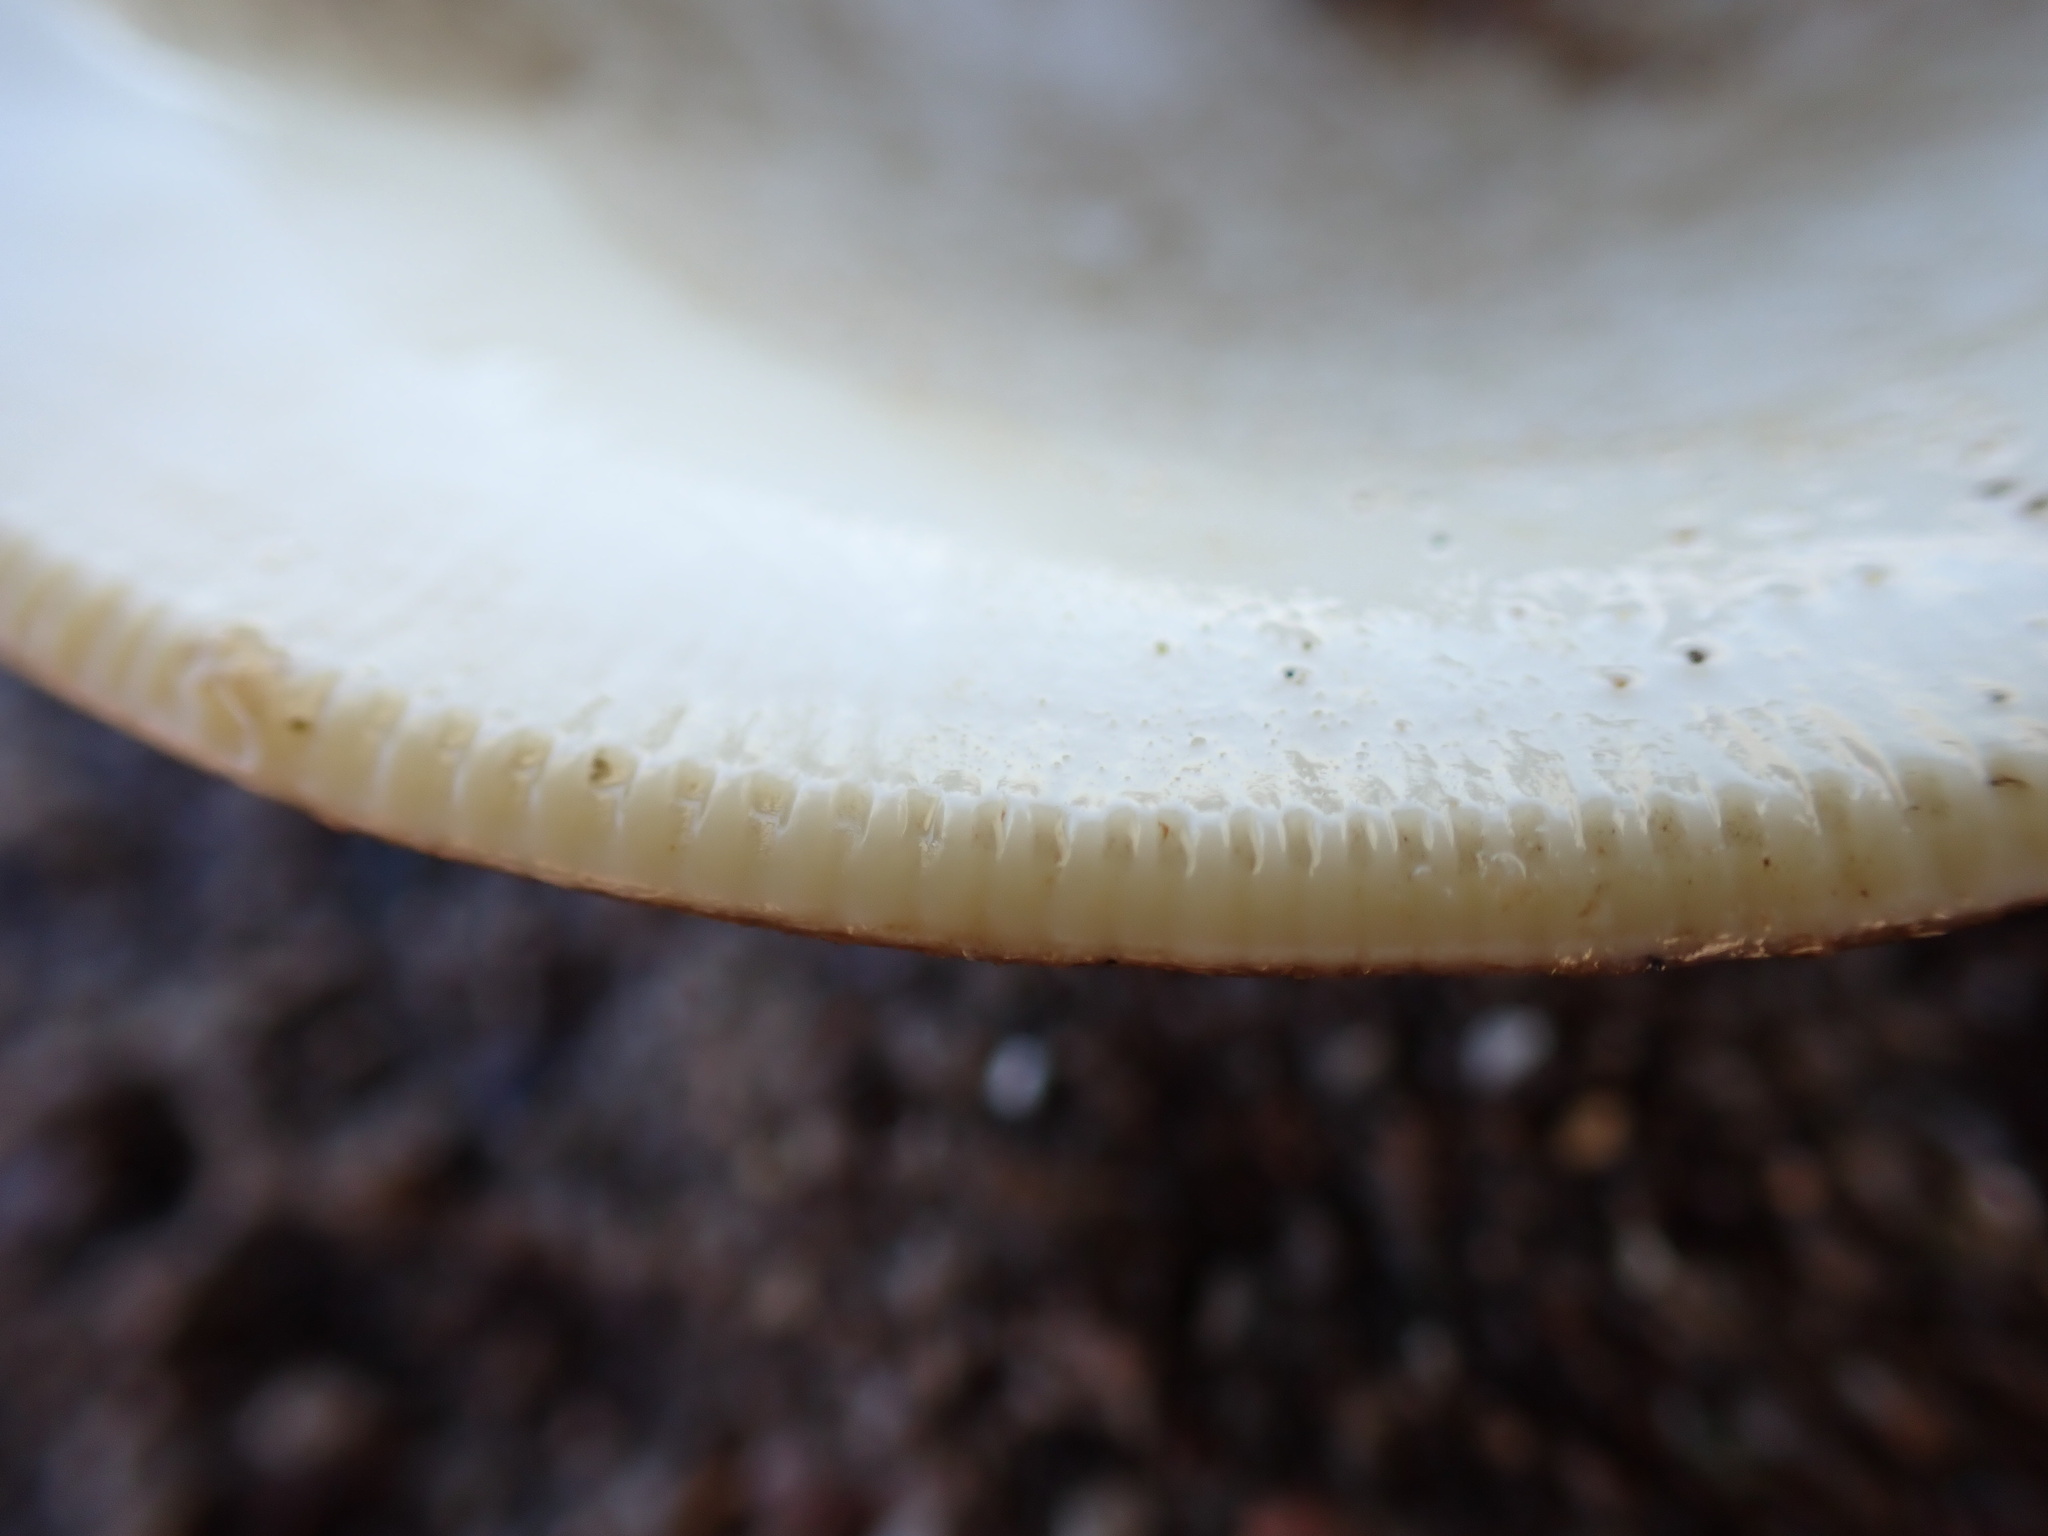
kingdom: Animalia
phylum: Mollusca
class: Bivalvia
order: Venerida
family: Veneridae
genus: Mercenaria
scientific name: Mercenaria mercenaria
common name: American hard-shelled clam
